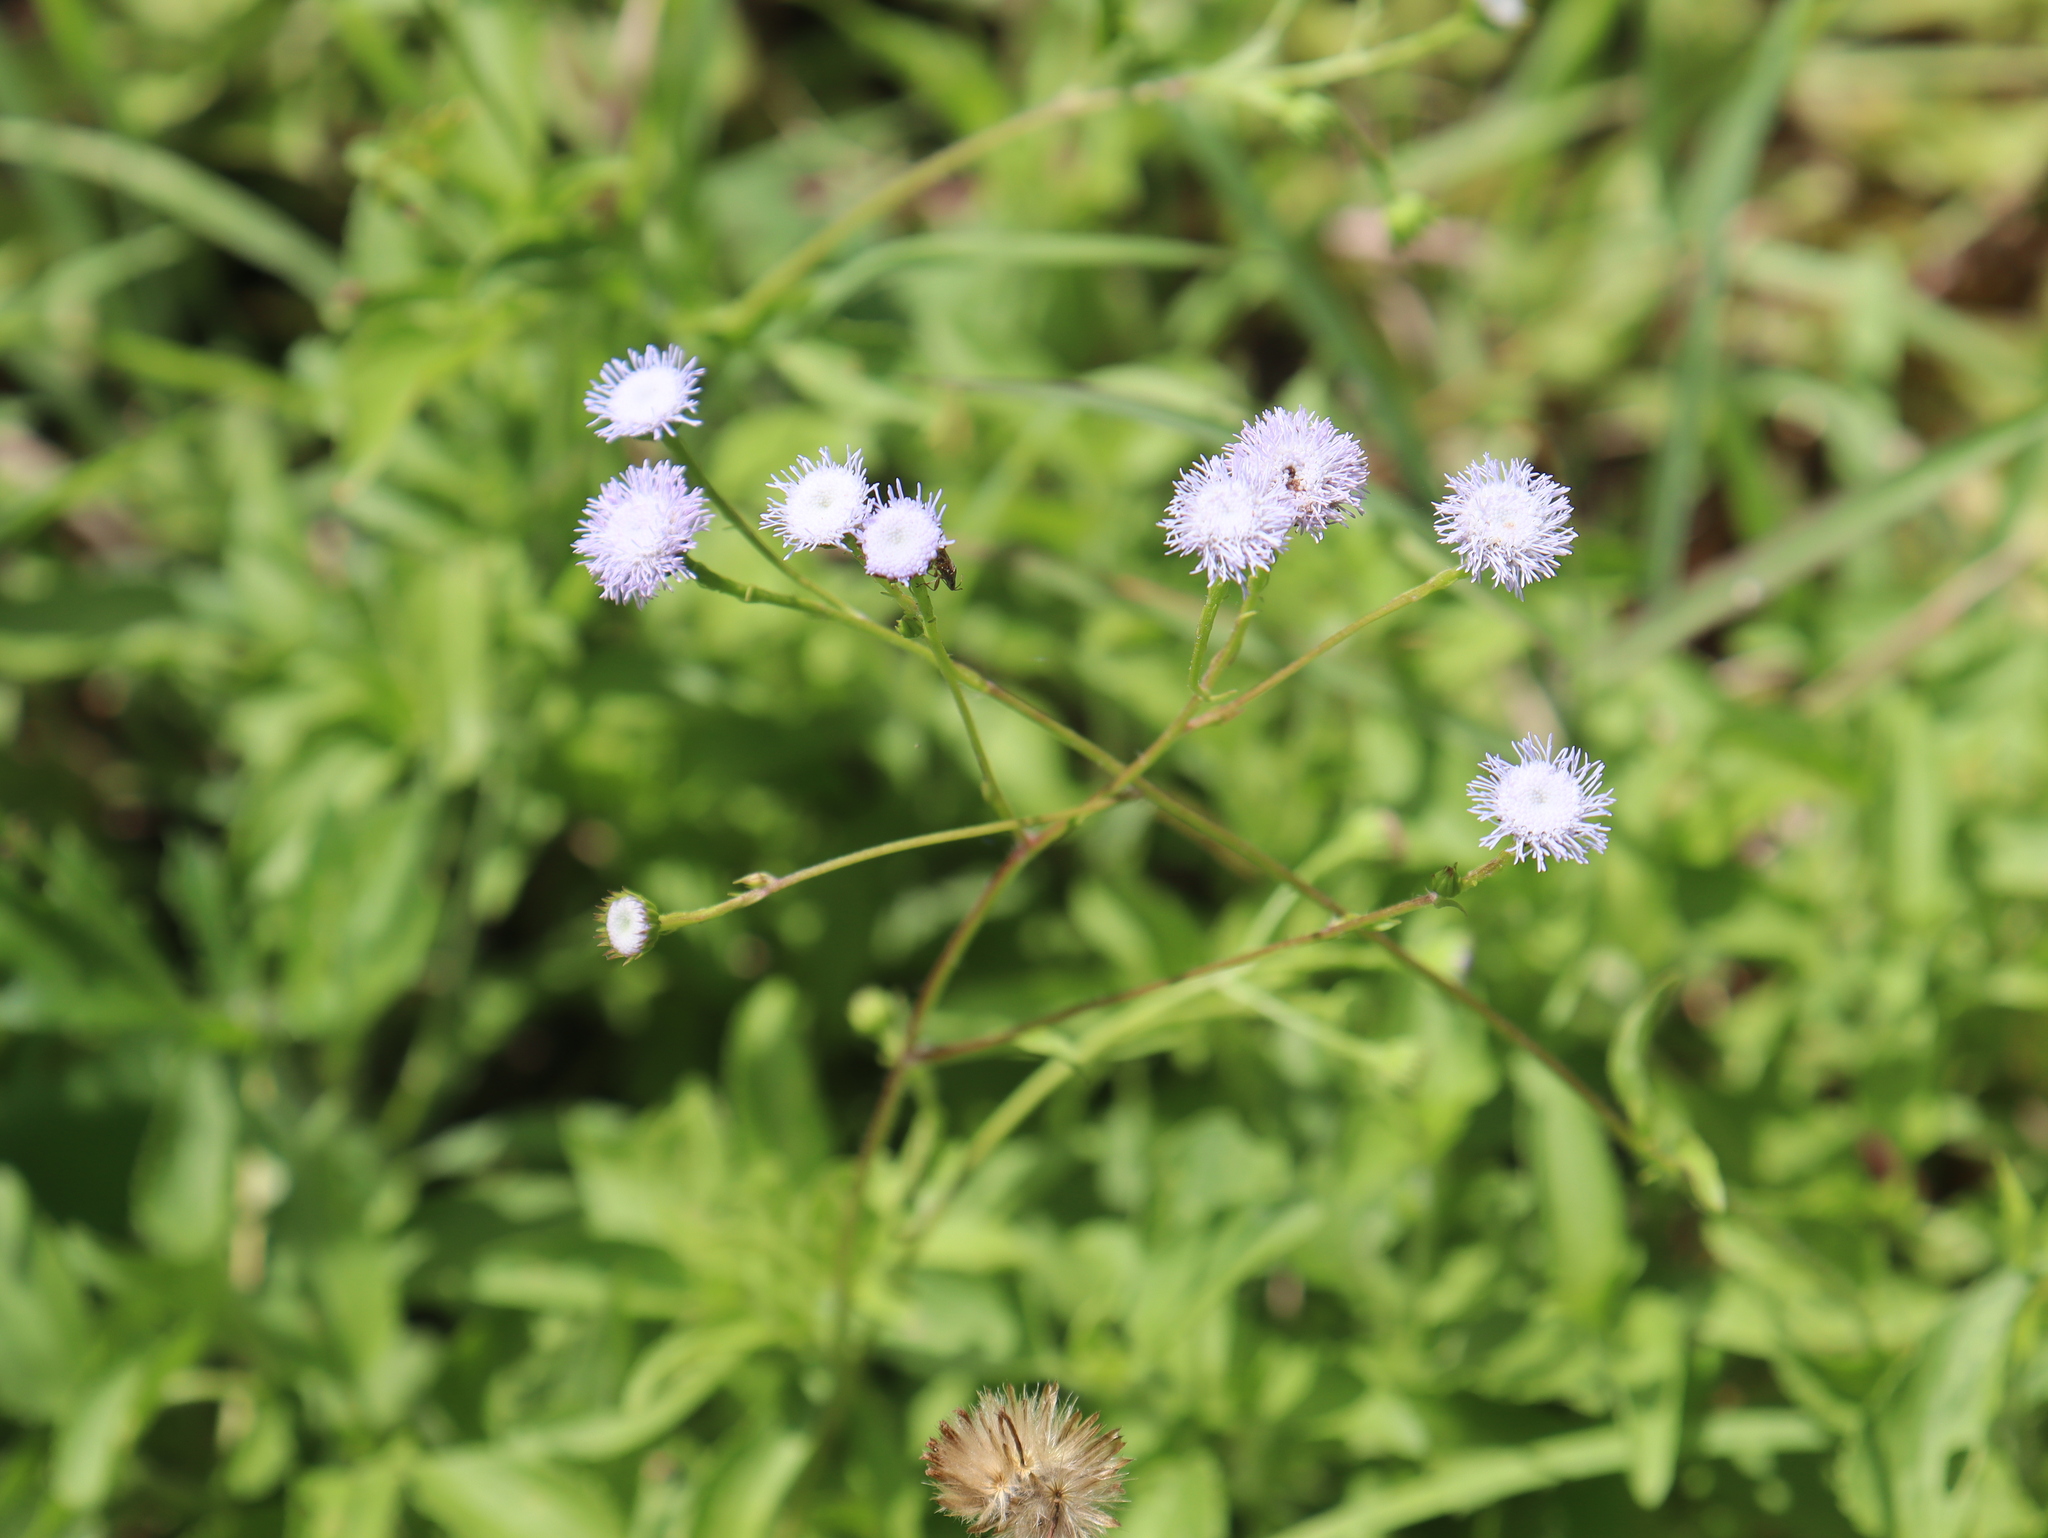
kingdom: Plantae
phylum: Tracheophyta
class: Magnoliopsida
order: Asterales
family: Asteraceae
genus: Ageratum
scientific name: Ageratum gaumeri
